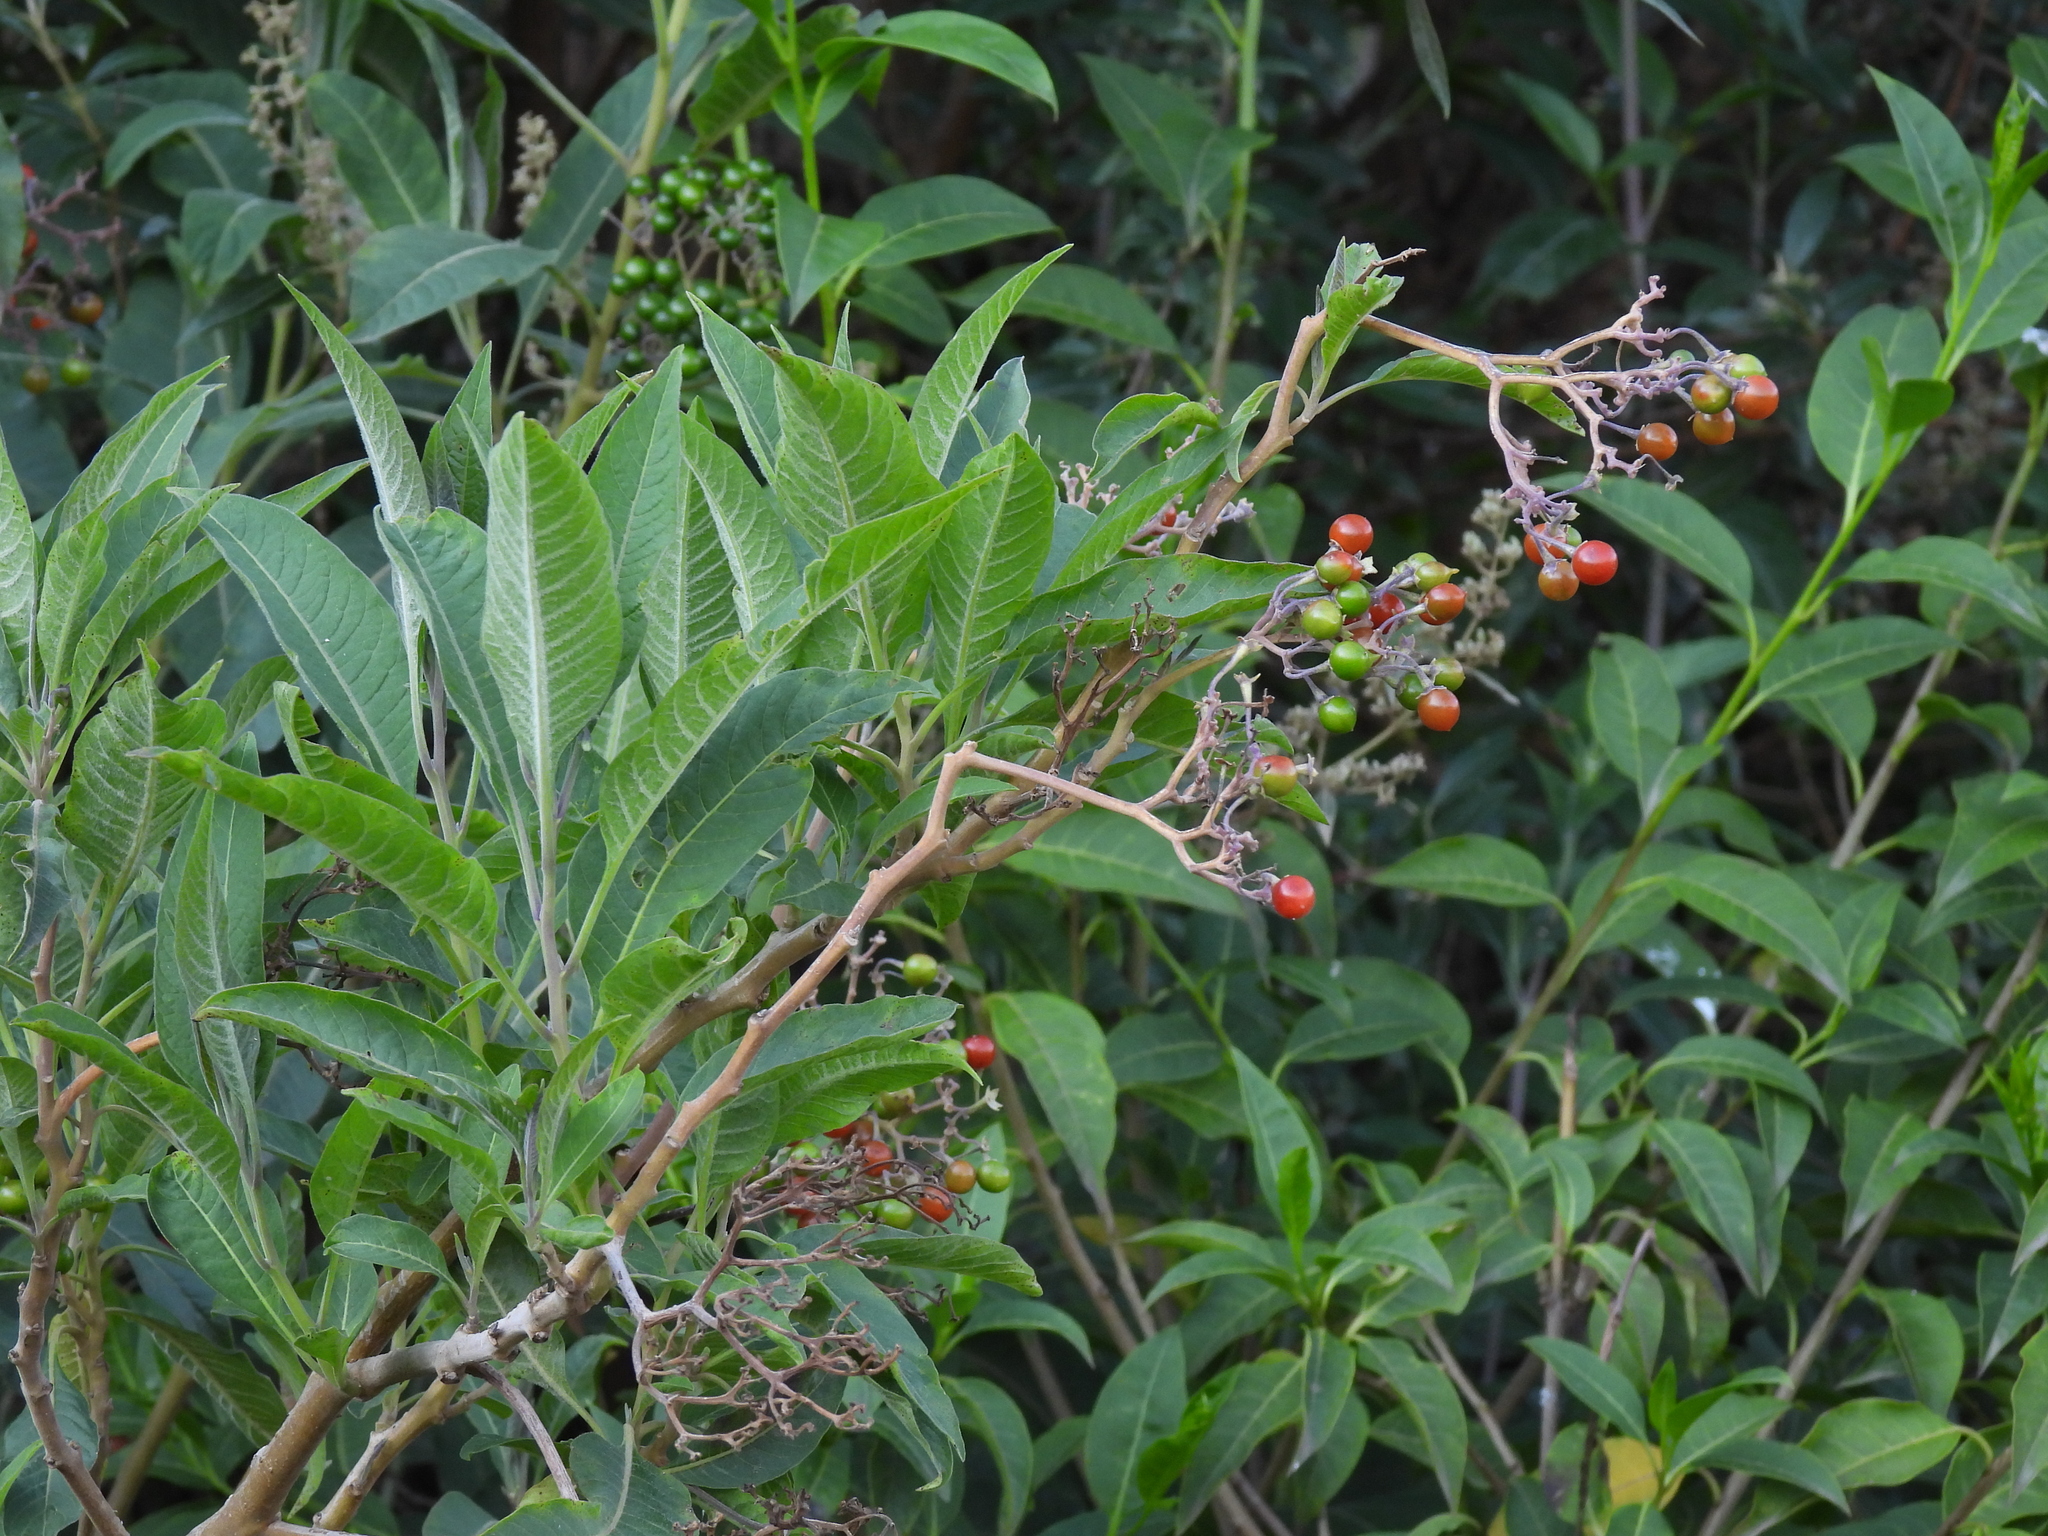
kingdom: Plantae
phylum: Tracheophyta
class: Magnoliopsida
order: Solanales
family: Solanaceae
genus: Solanum
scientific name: Solanum pubigerum
